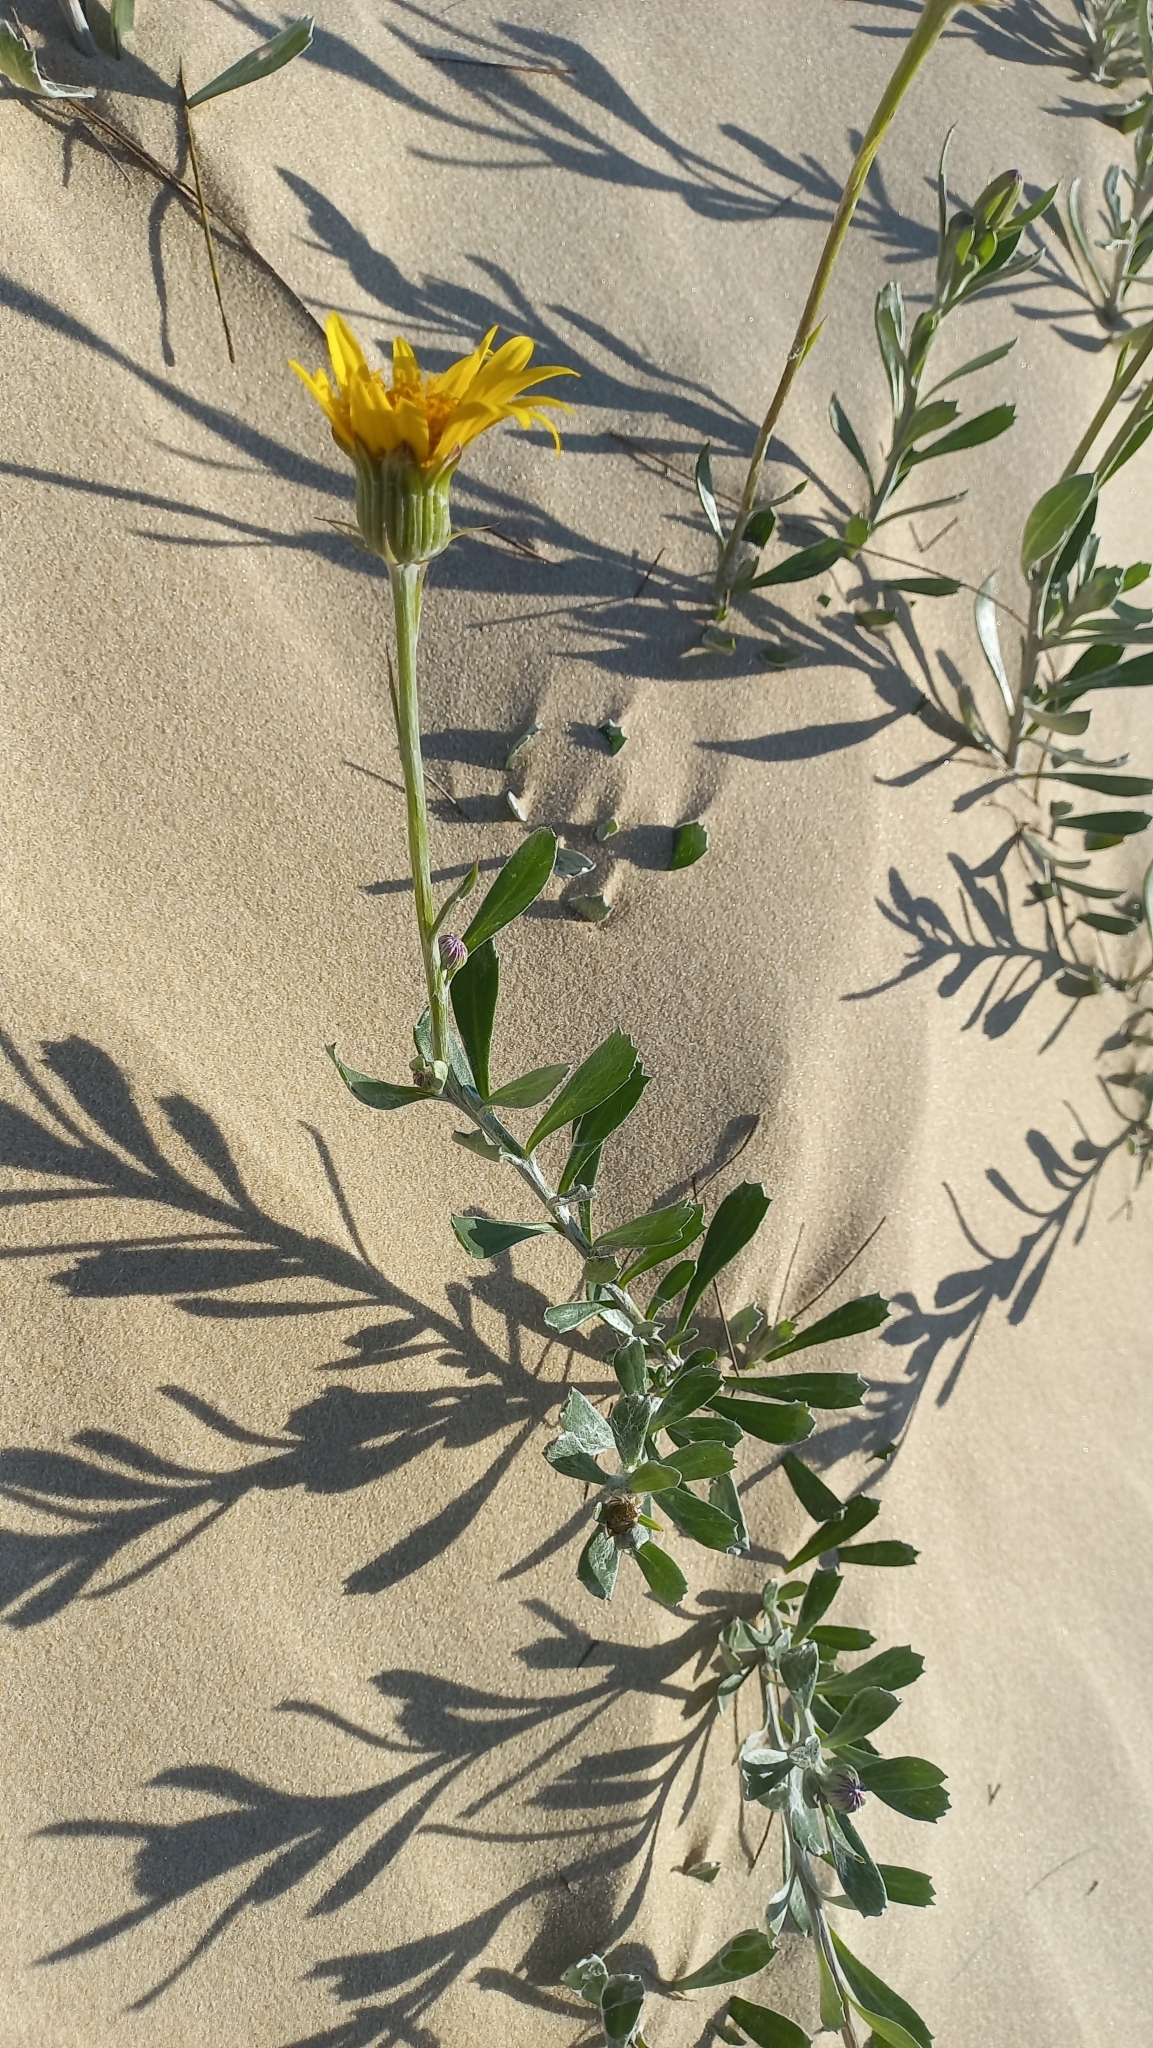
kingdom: Plantae
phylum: Tracheophyta
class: Magnoliopsida
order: Asterales
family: Asteraceae
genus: Senecio
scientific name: Senecio crassiflorus
